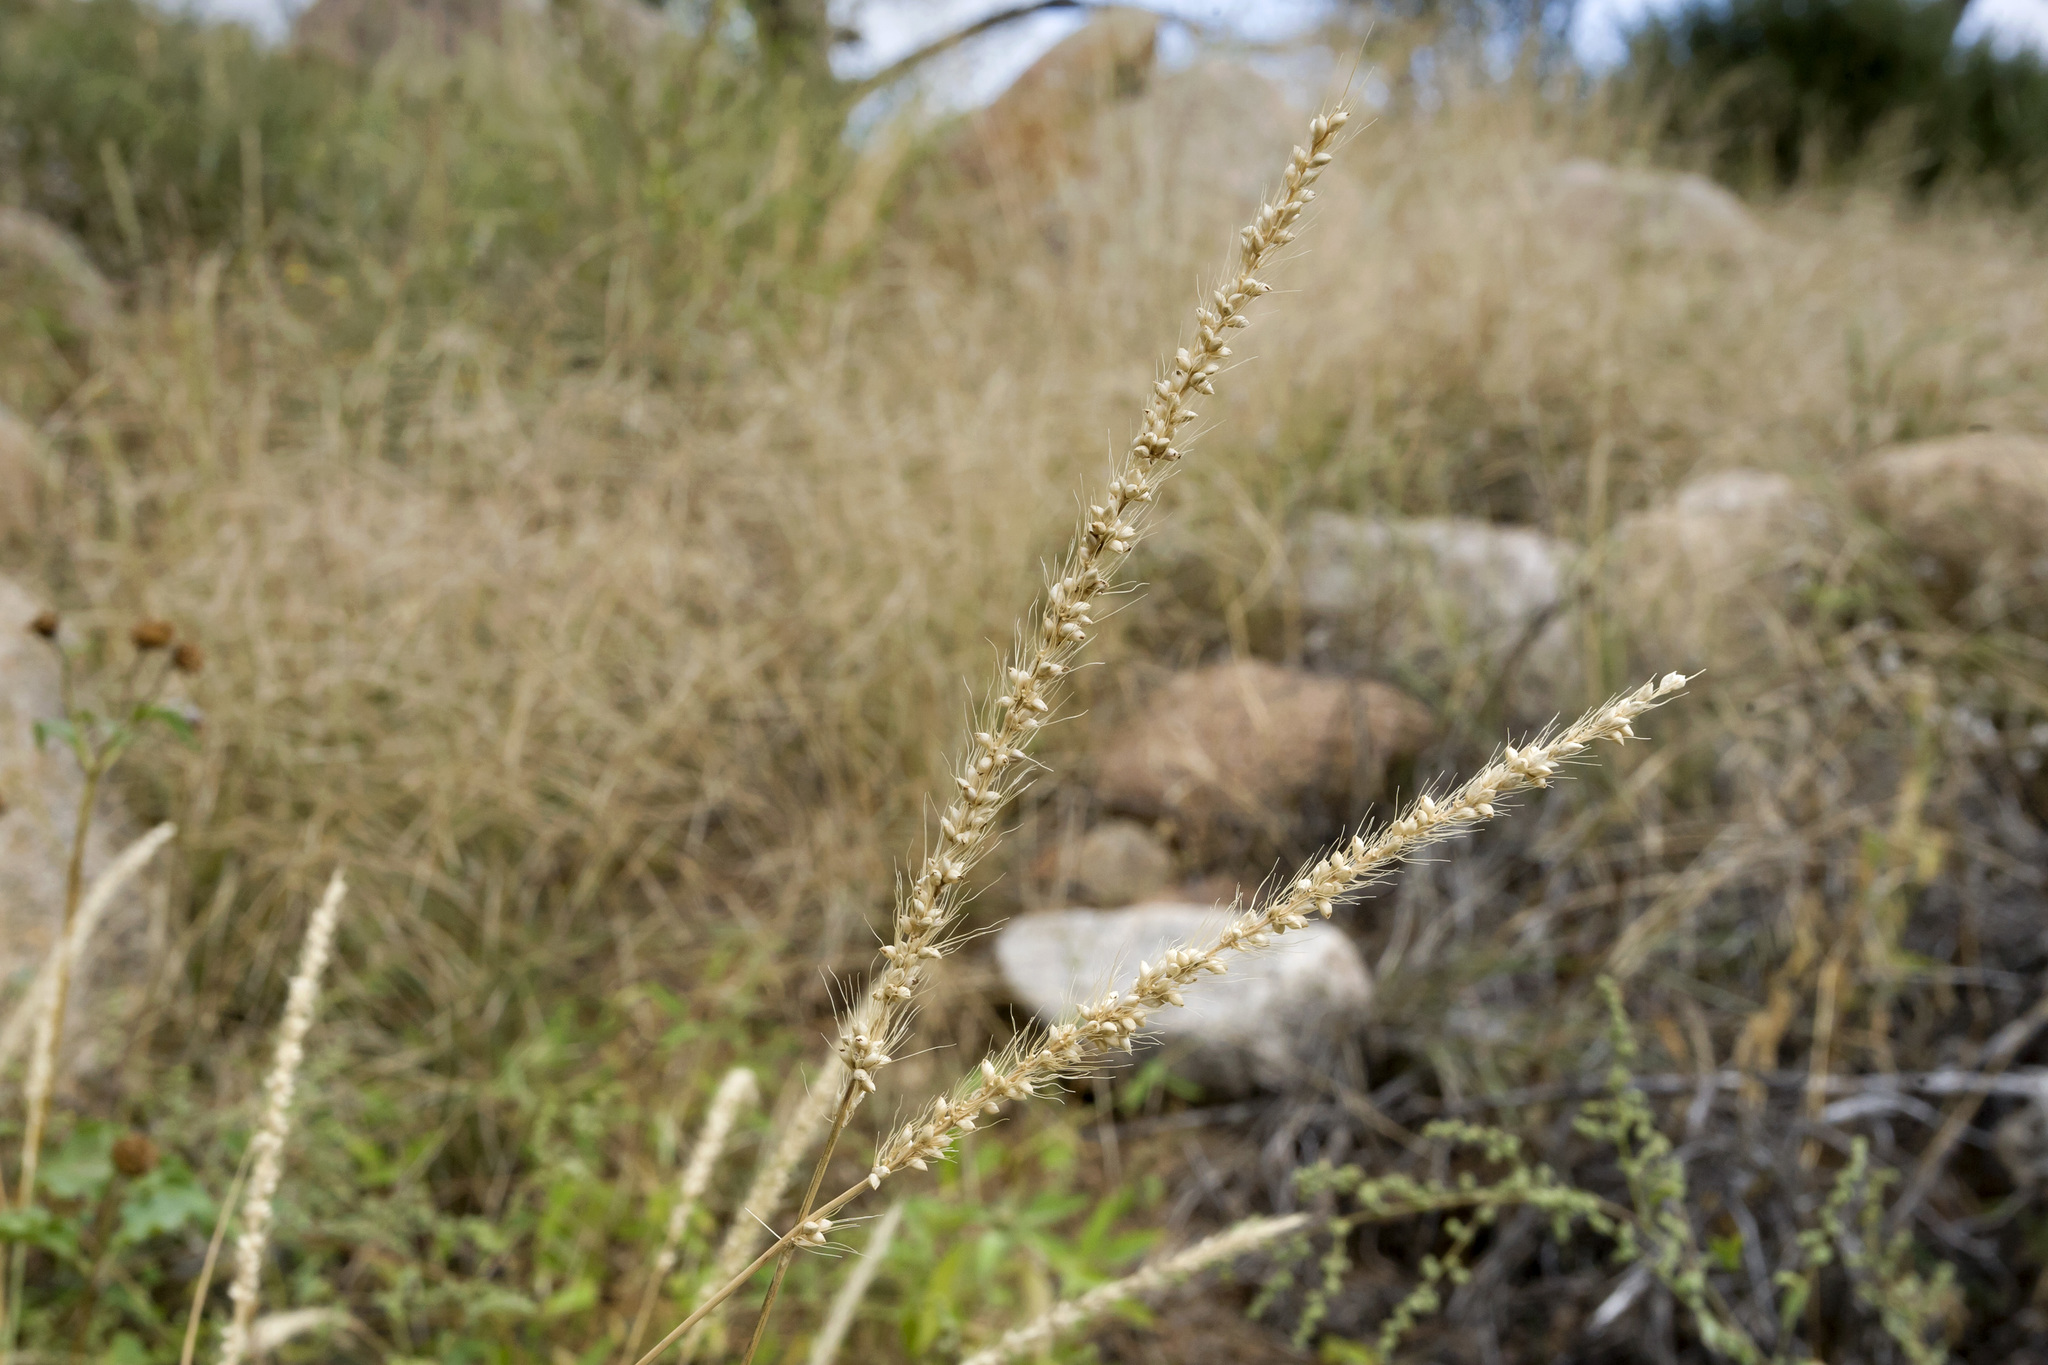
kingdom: Plantae
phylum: Tracheophyta
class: Liliopsida
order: Poales
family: Poaceae
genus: Setaria
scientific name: Setaria leucopila
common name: Plains bristle grass
